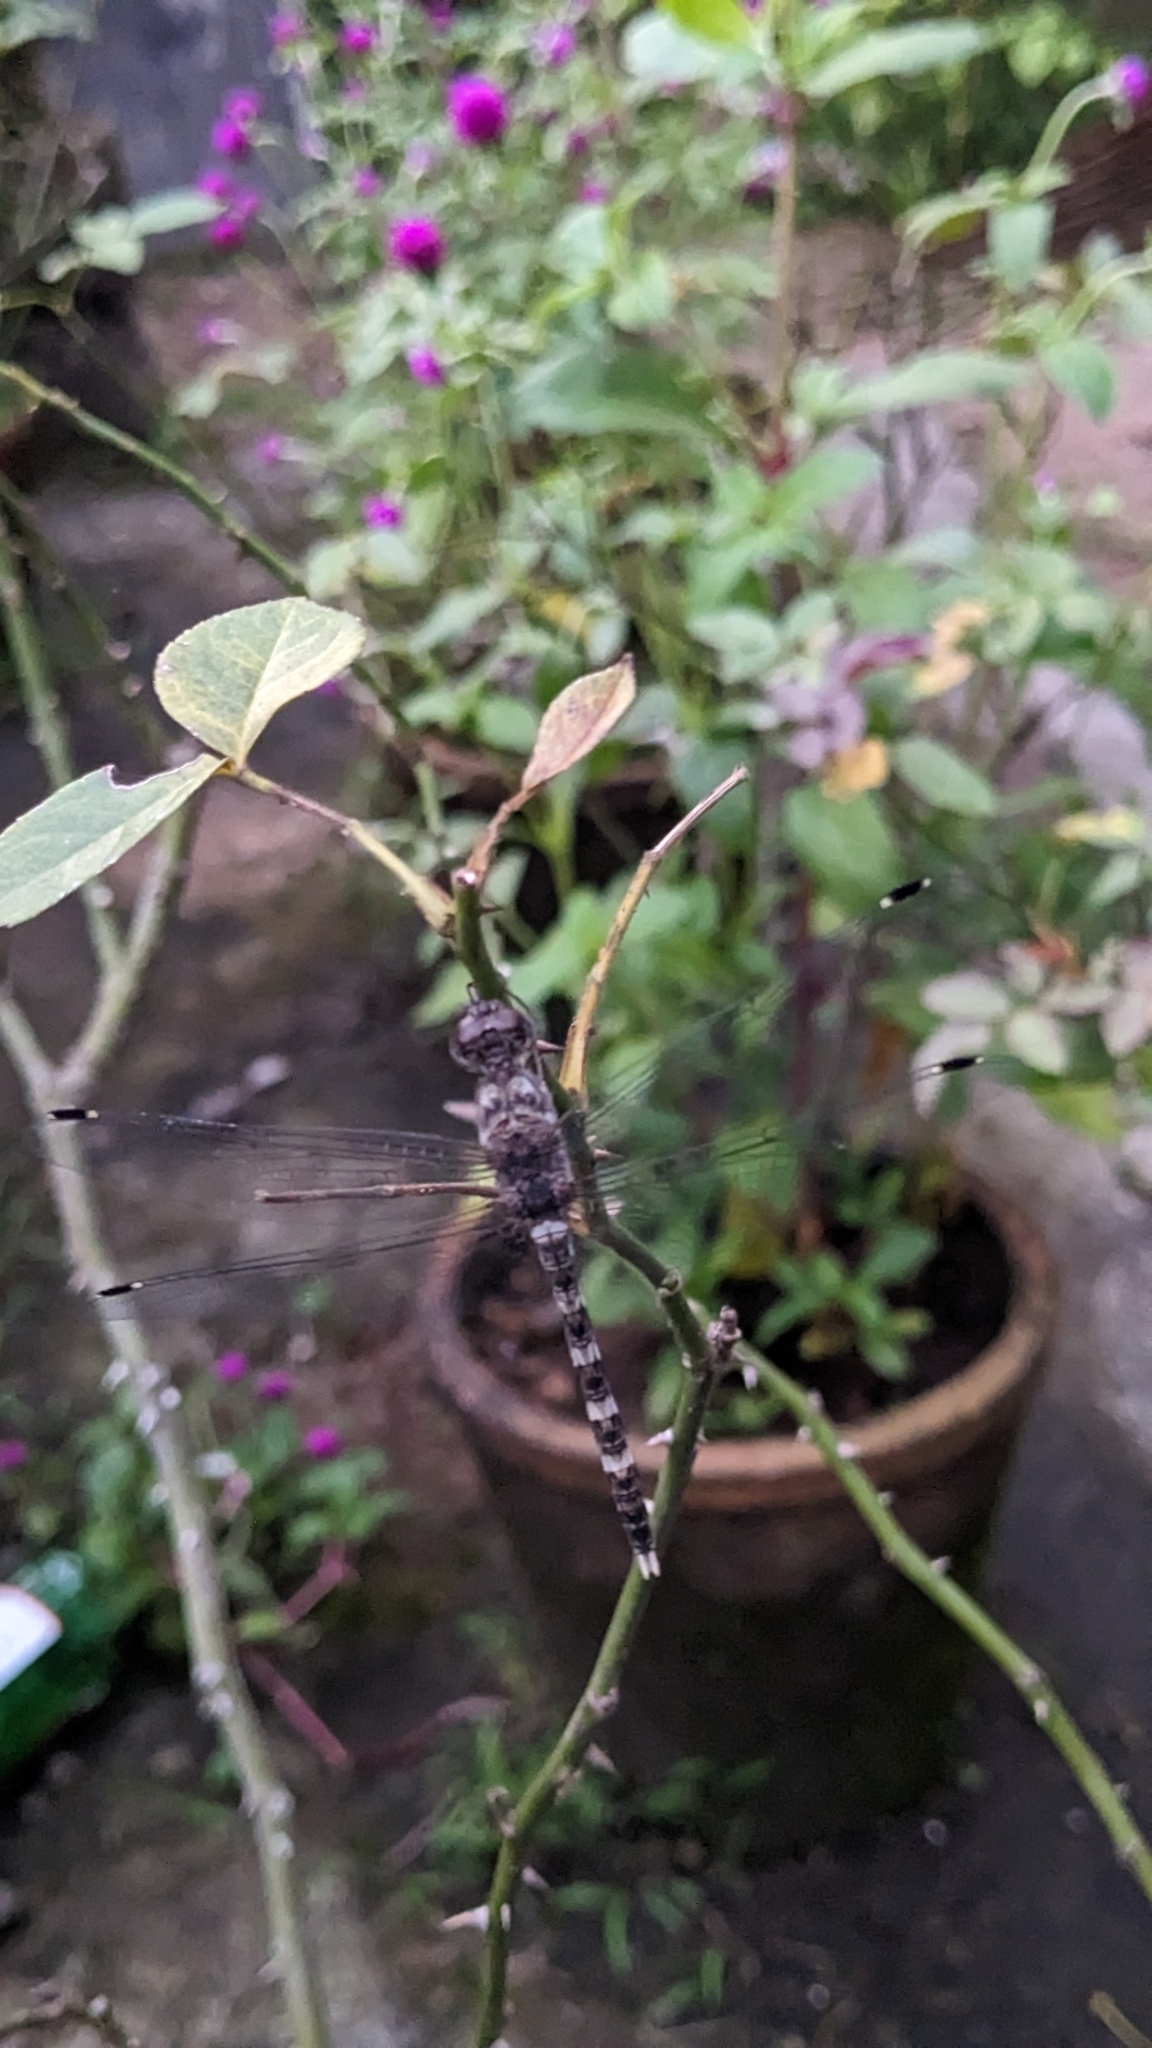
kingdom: Animalia
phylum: Arthropoda
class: Insecta
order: Odonata
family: Libellulidae
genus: Bradinopyga
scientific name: Bradinopyga geminata
